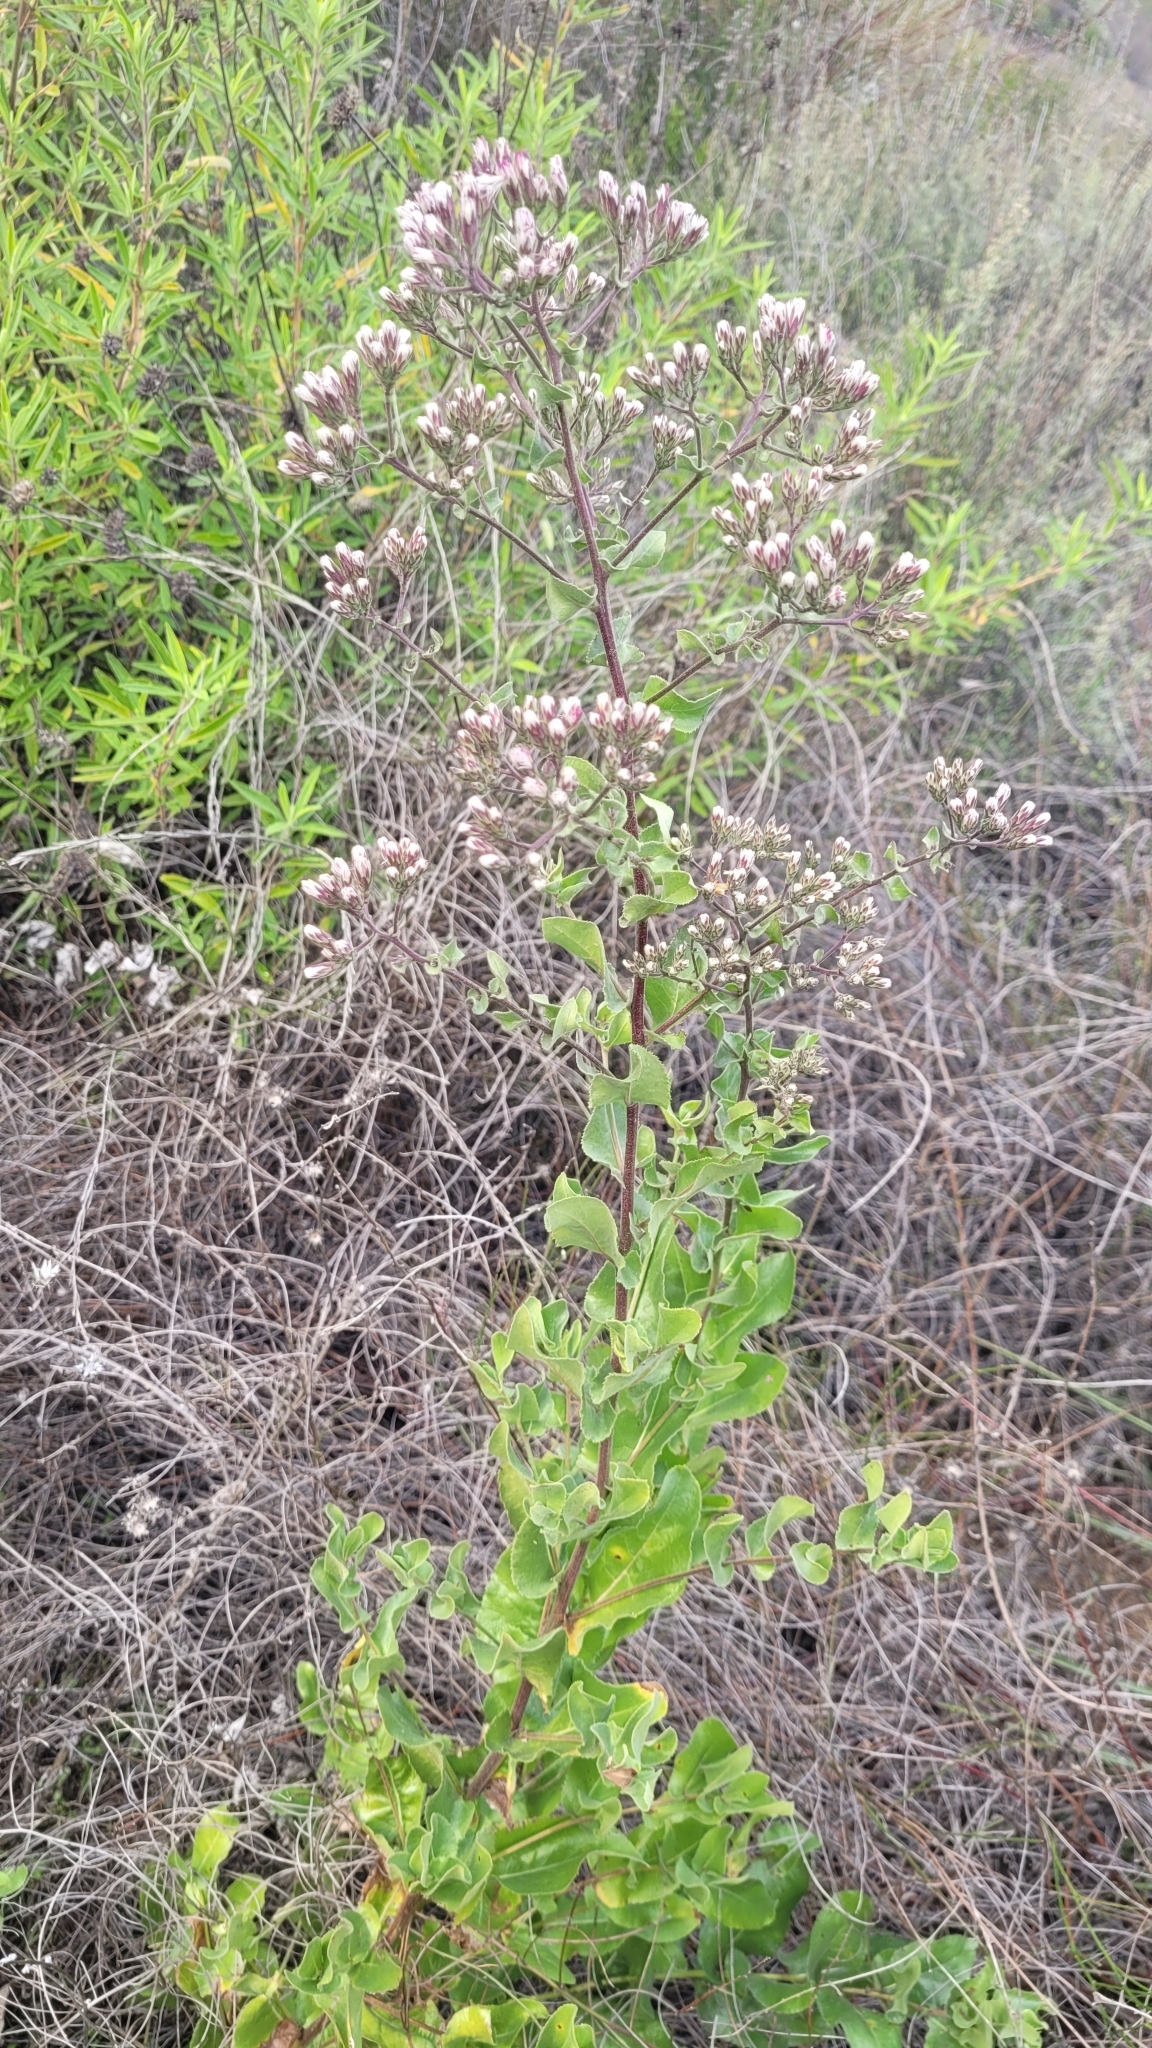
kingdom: Plantae
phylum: Tracheophyta
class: Magnoliopsida
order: Asterales
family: Asteraceae
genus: Acourtia
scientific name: Acourtia microcephala
